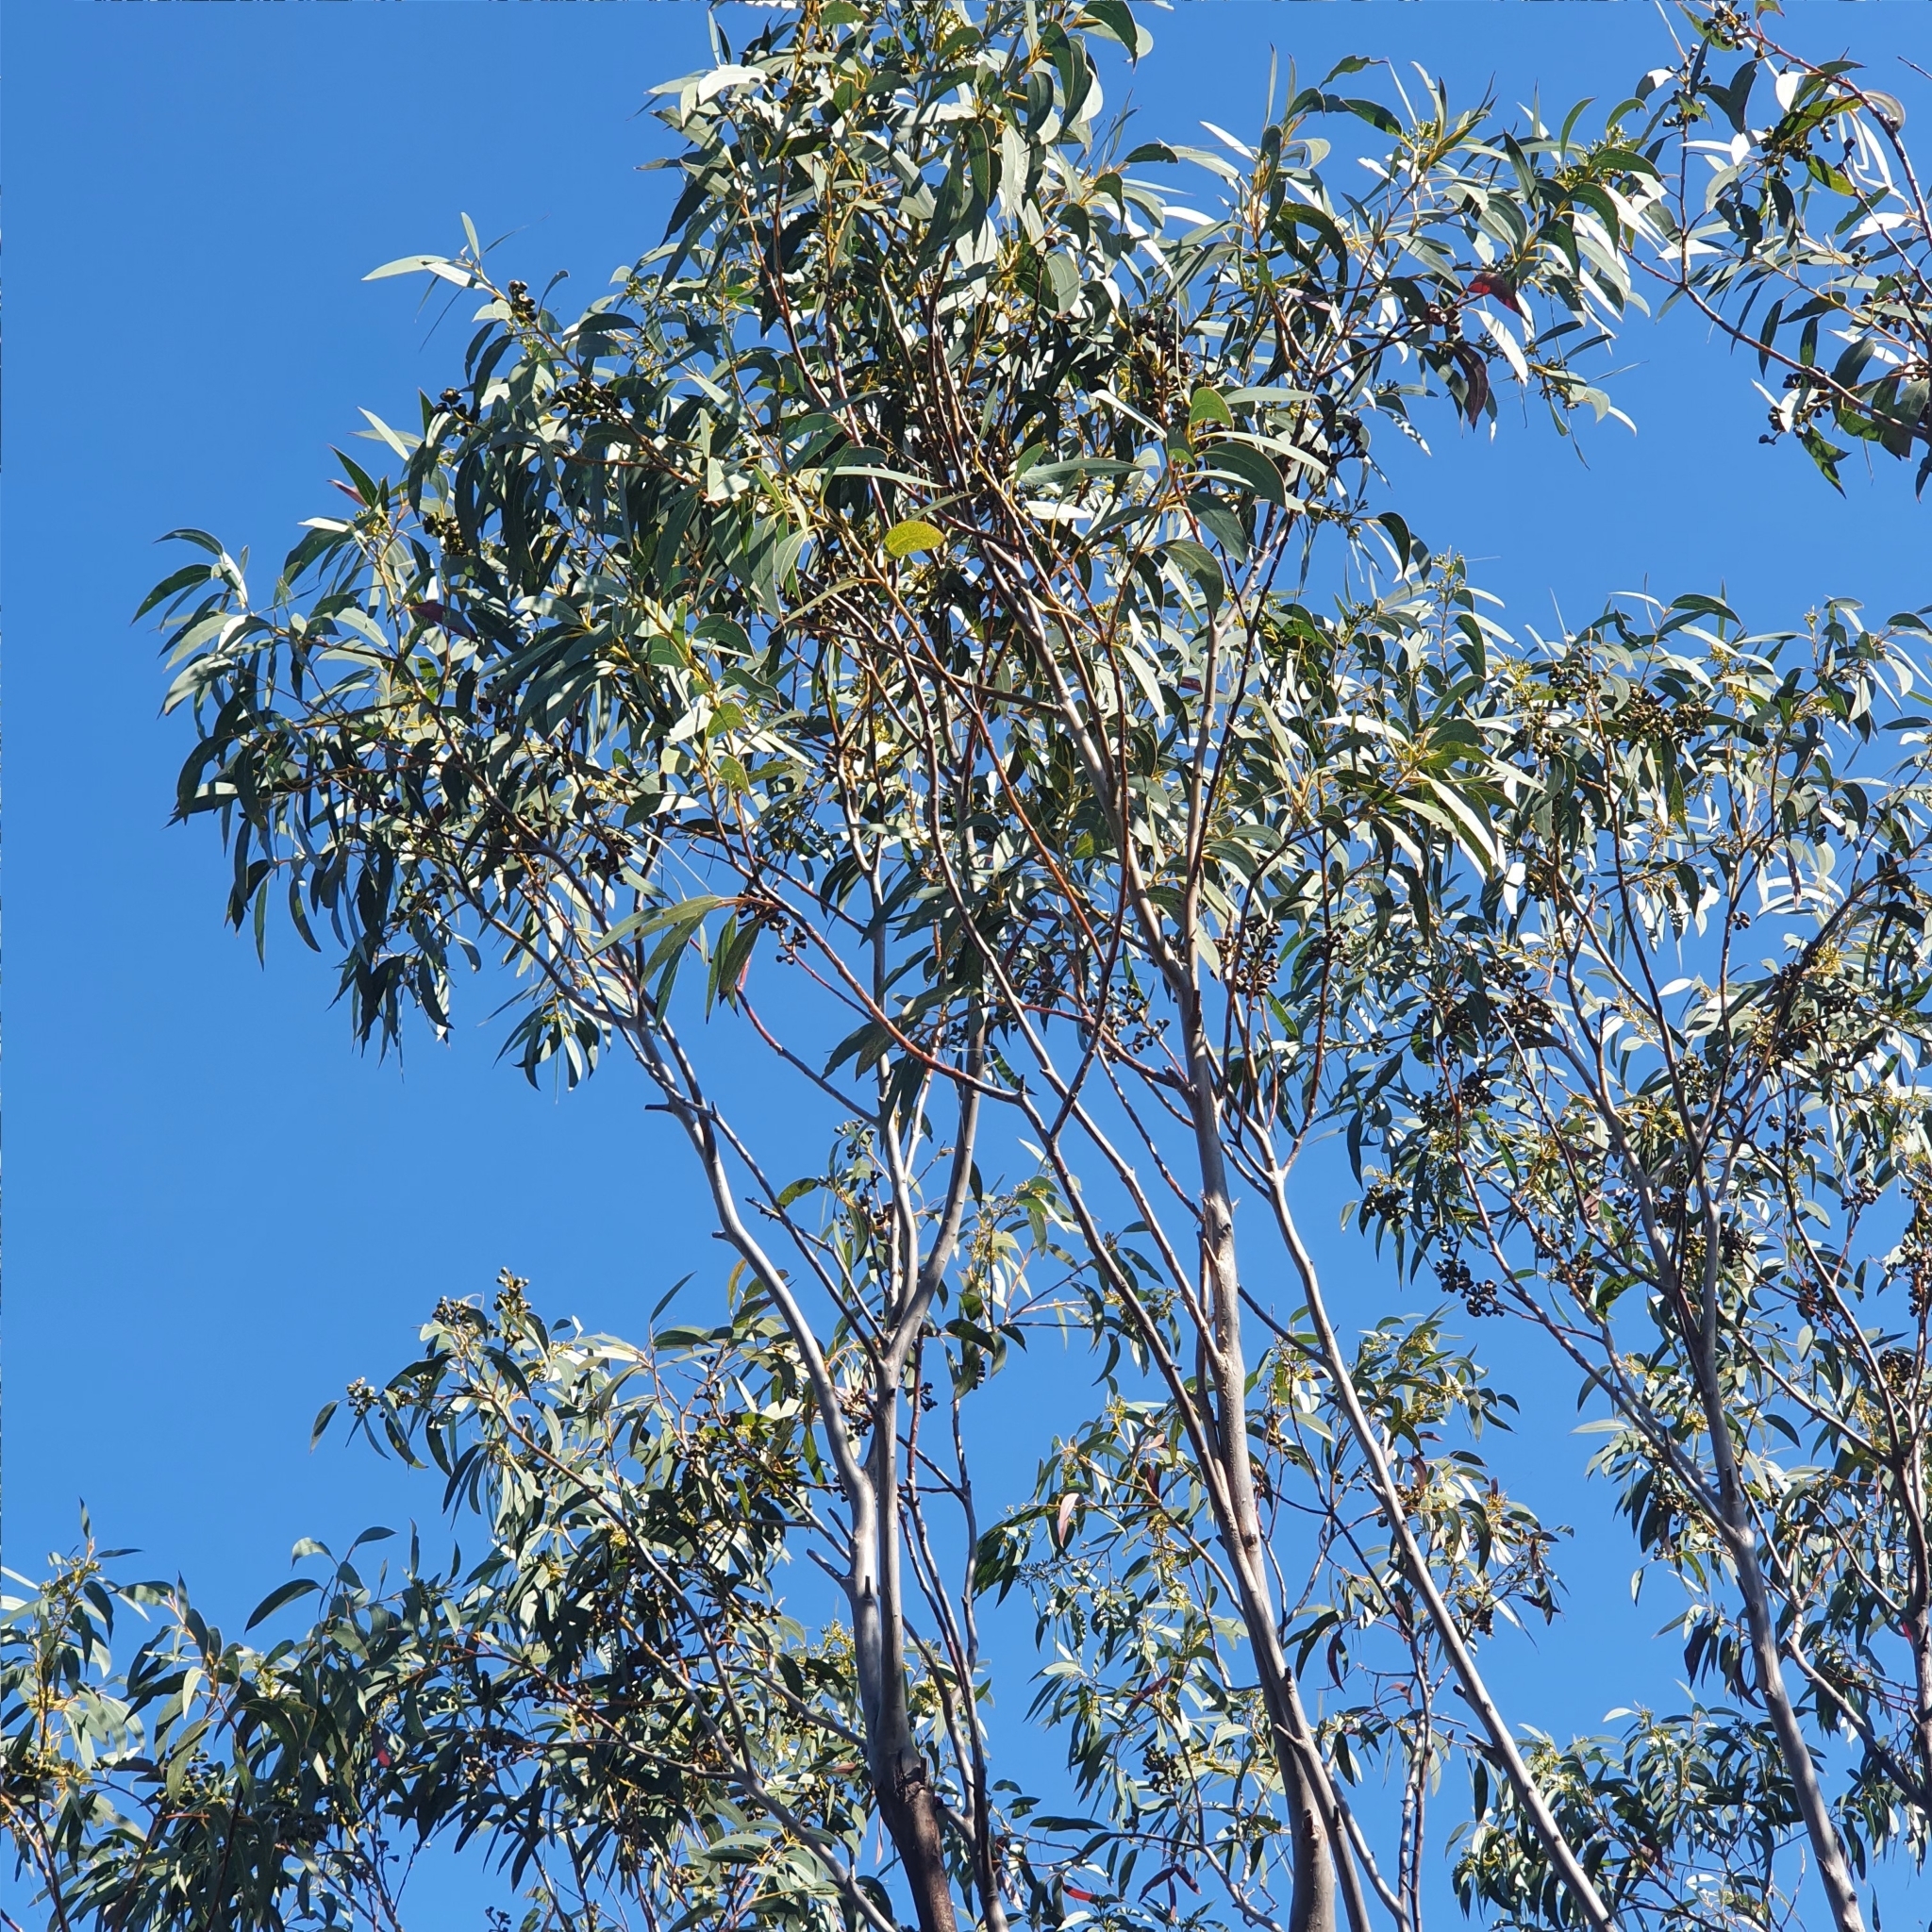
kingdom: Plantae
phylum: Tracheophyta
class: Magnoliopsida
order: Myrtales
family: Myrtaceae
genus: Eucalyptus
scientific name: Eucalyptus luehmanniana
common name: Yellow-top mallee ash
